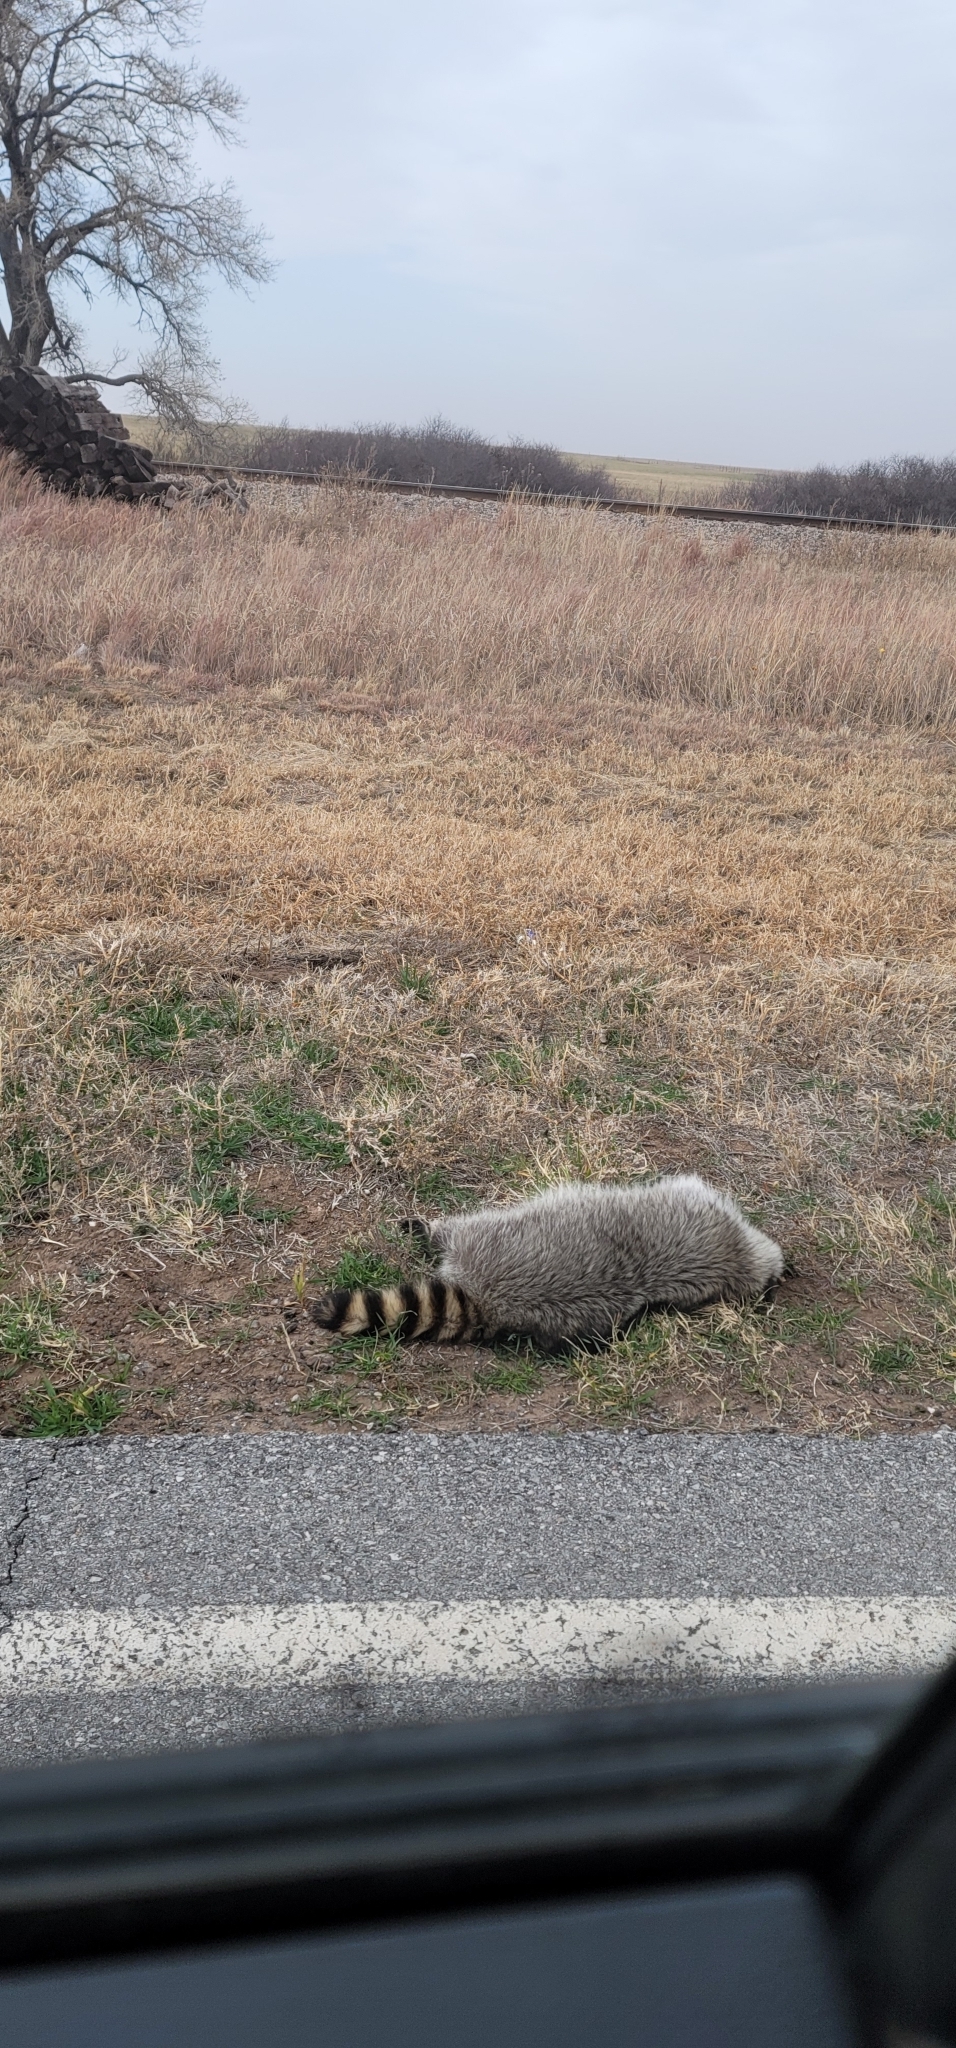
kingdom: Animalia
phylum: Chordata
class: Mammalia
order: Carnivora
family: Procyonidae
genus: Procyon
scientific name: Procyon lotor
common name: Raccoon
